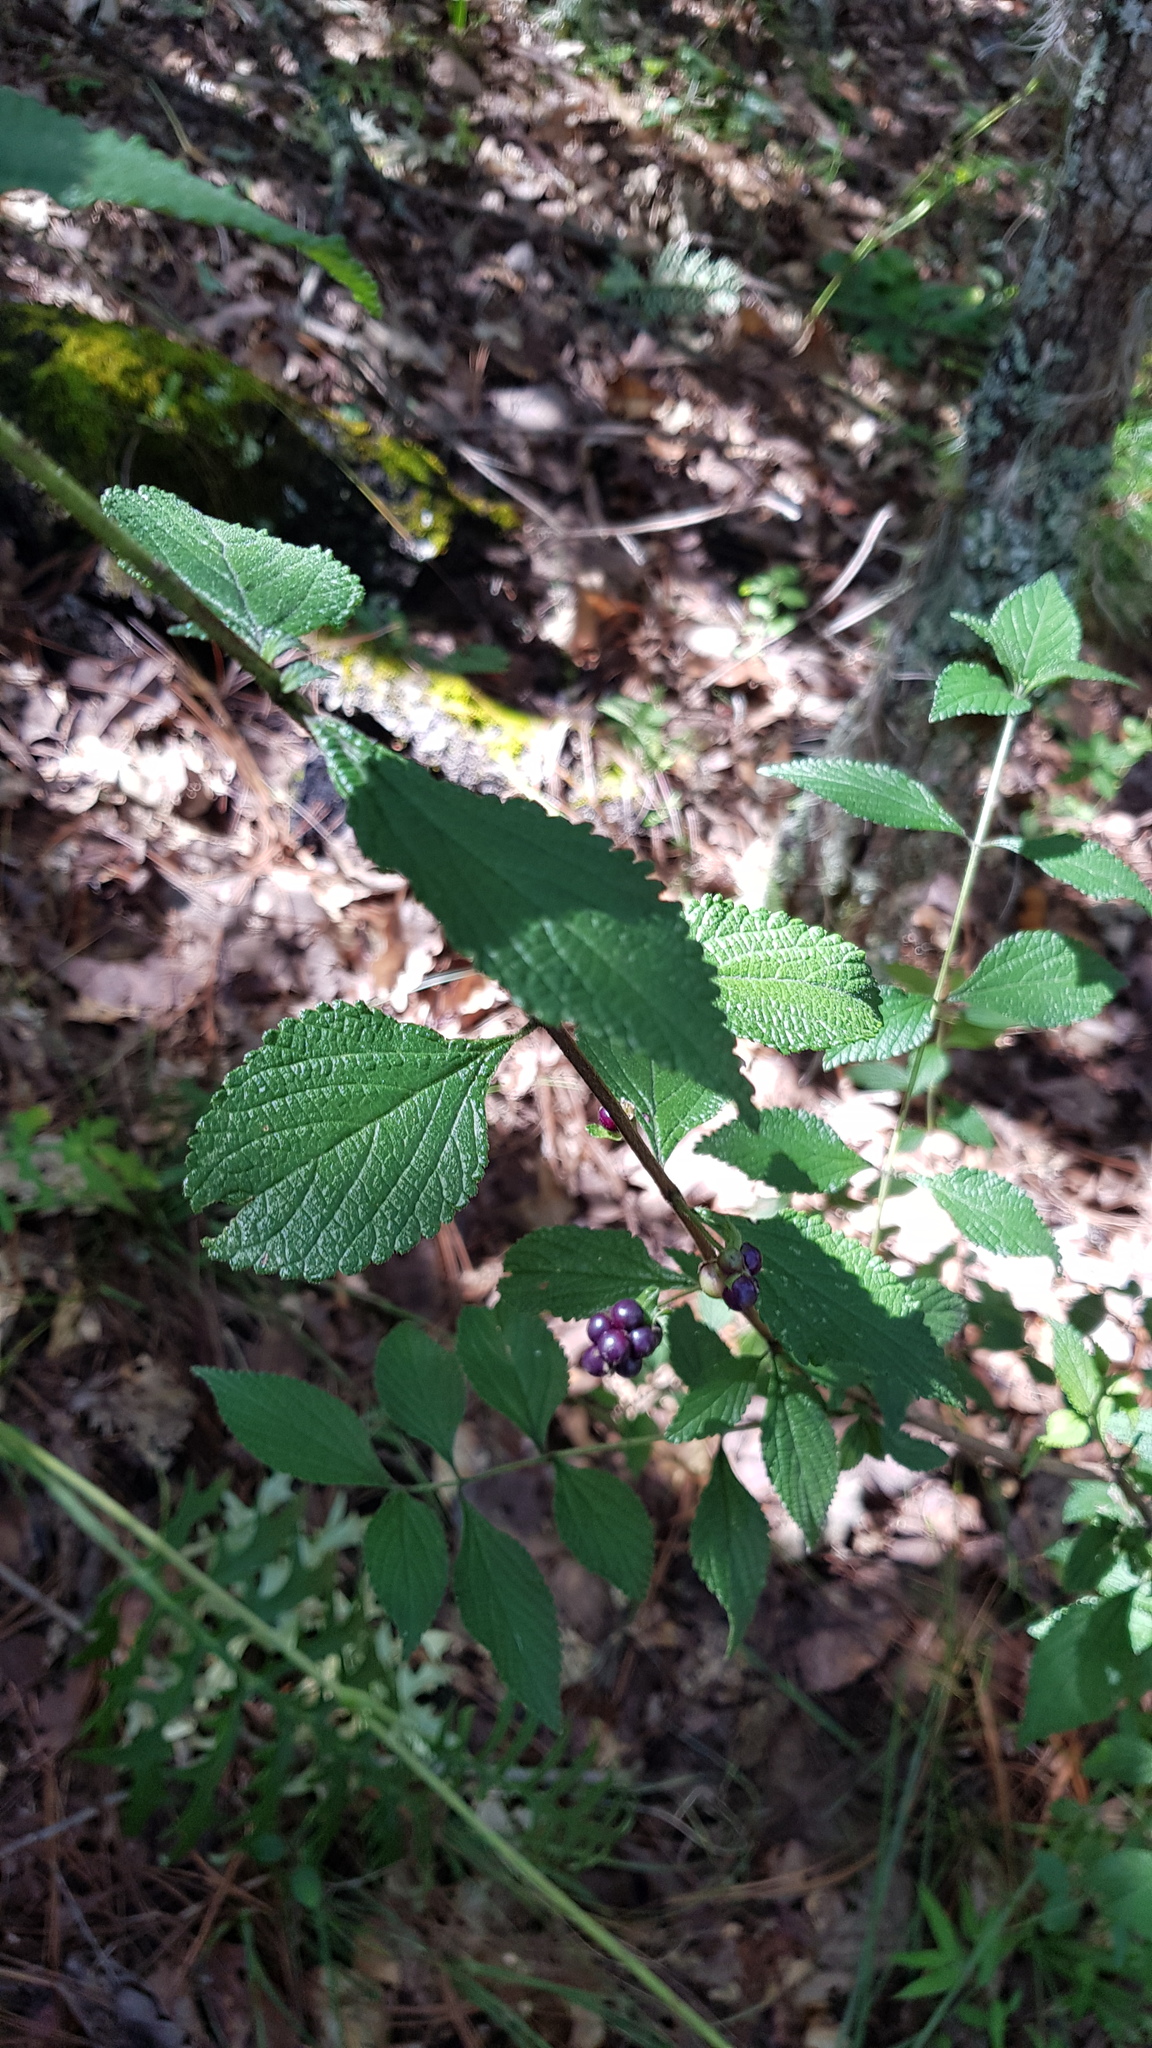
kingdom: Plantae
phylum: Tracheophyta
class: Magnoliopsida
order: Lamiales
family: Verbenaceae
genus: Lantana
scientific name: Lantana velutina
